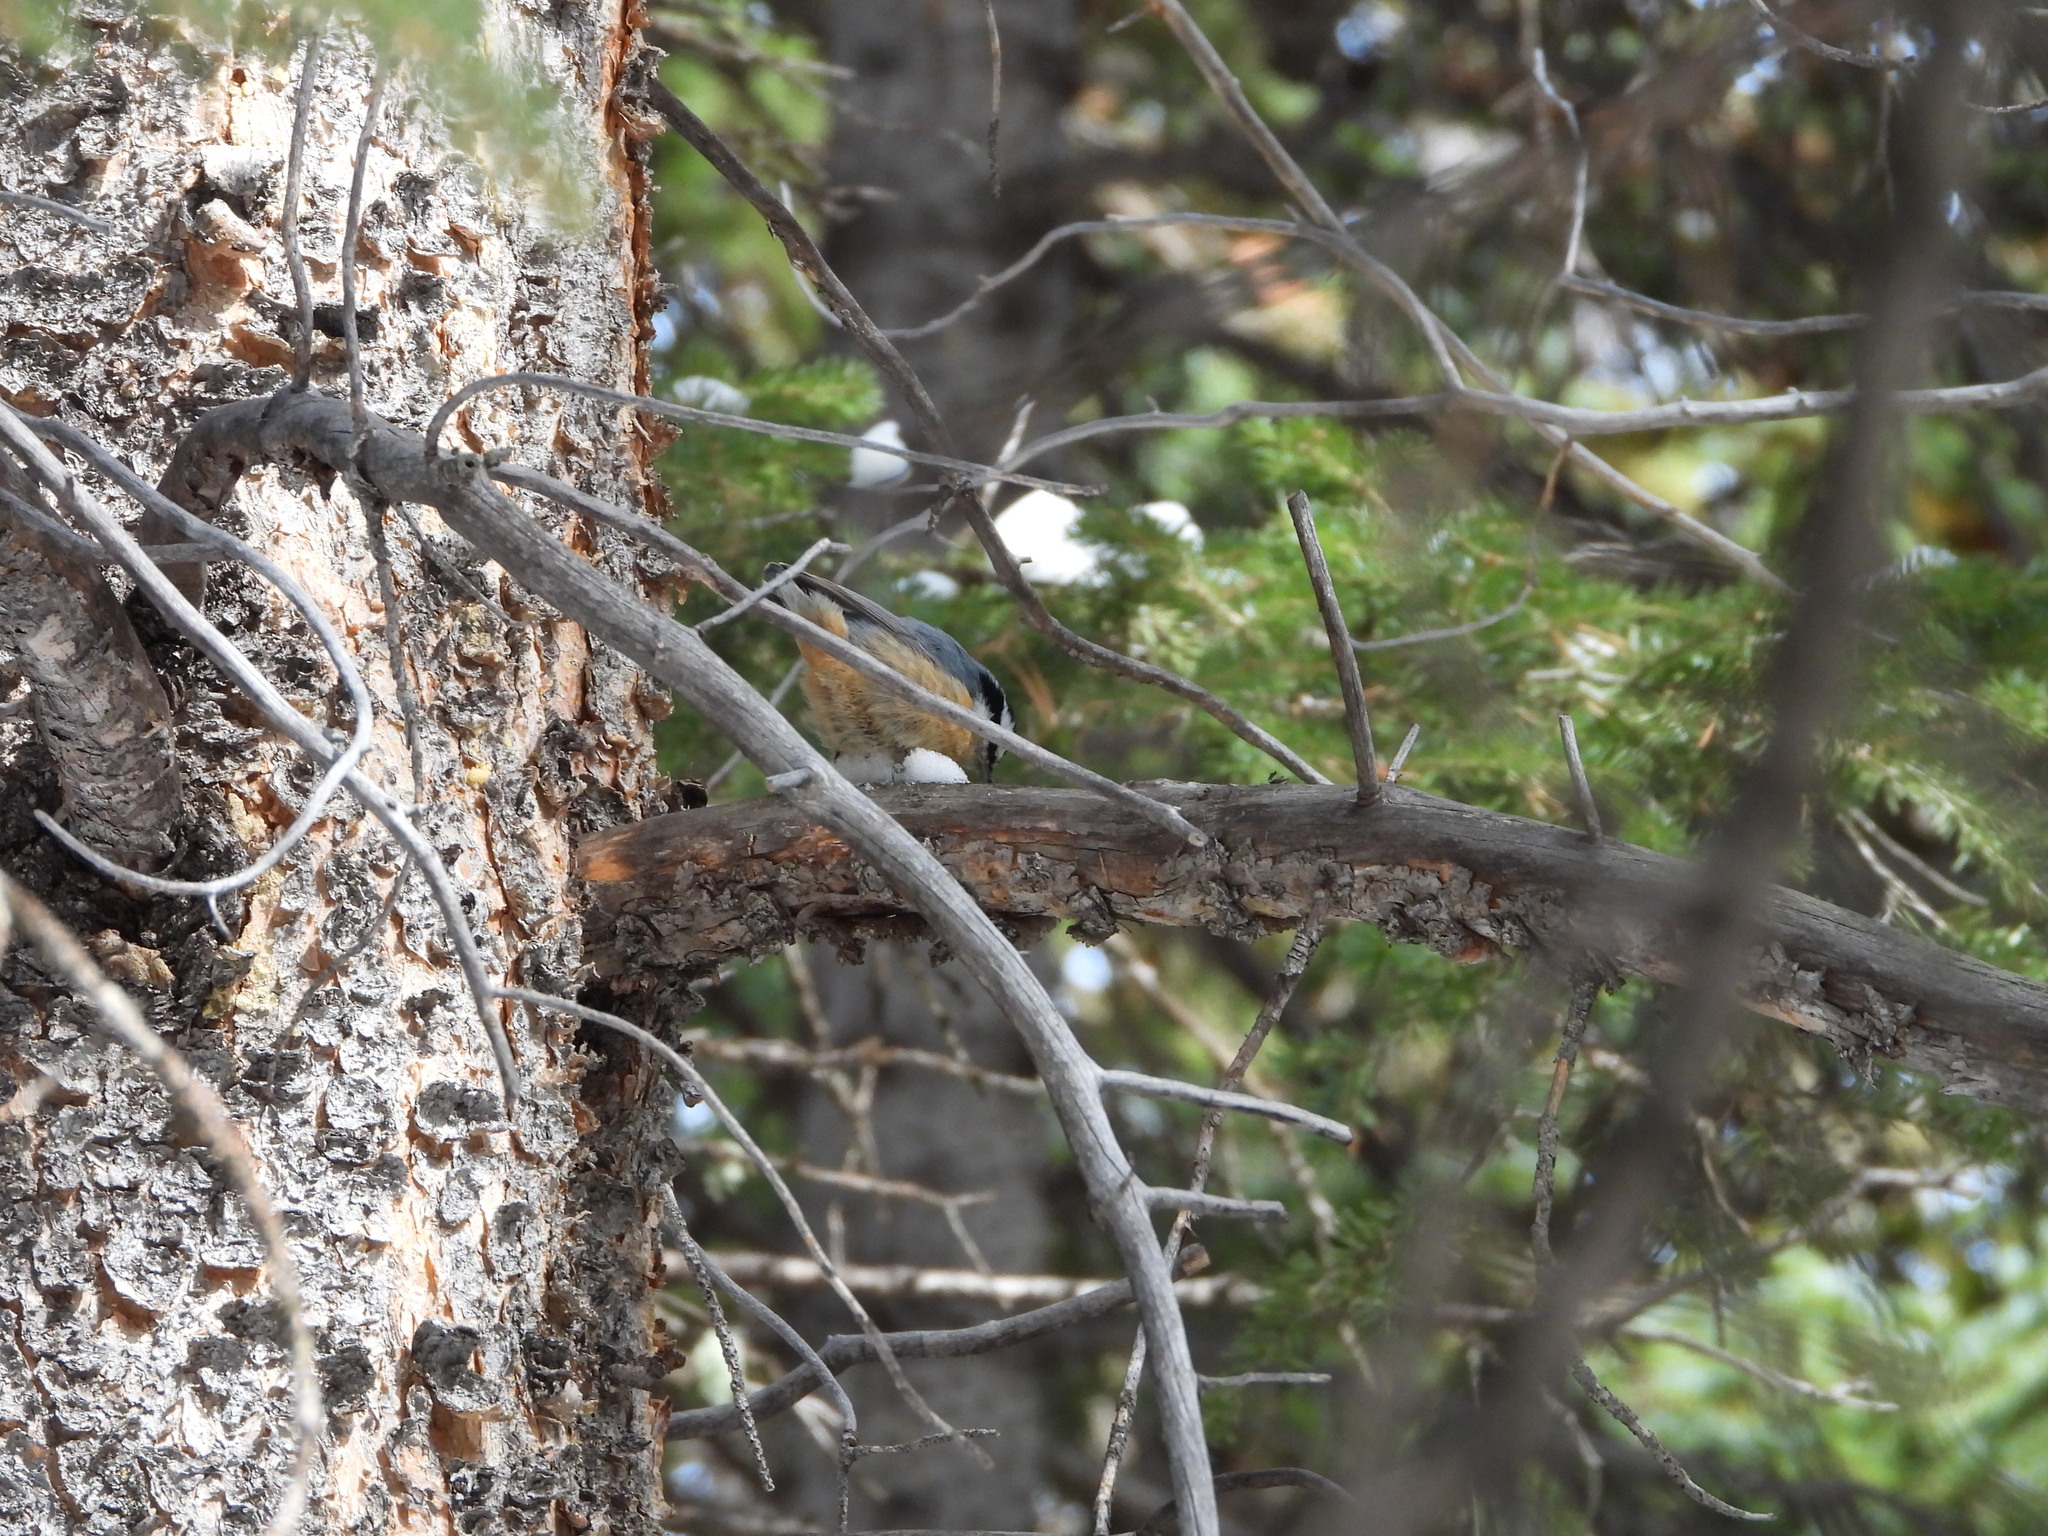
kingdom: Animalia
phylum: Chordata
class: Aves
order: Passeriformes
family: Sittidae
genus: Sitta
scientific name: Sitta canadensis
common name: Red-breasted nuthatch
